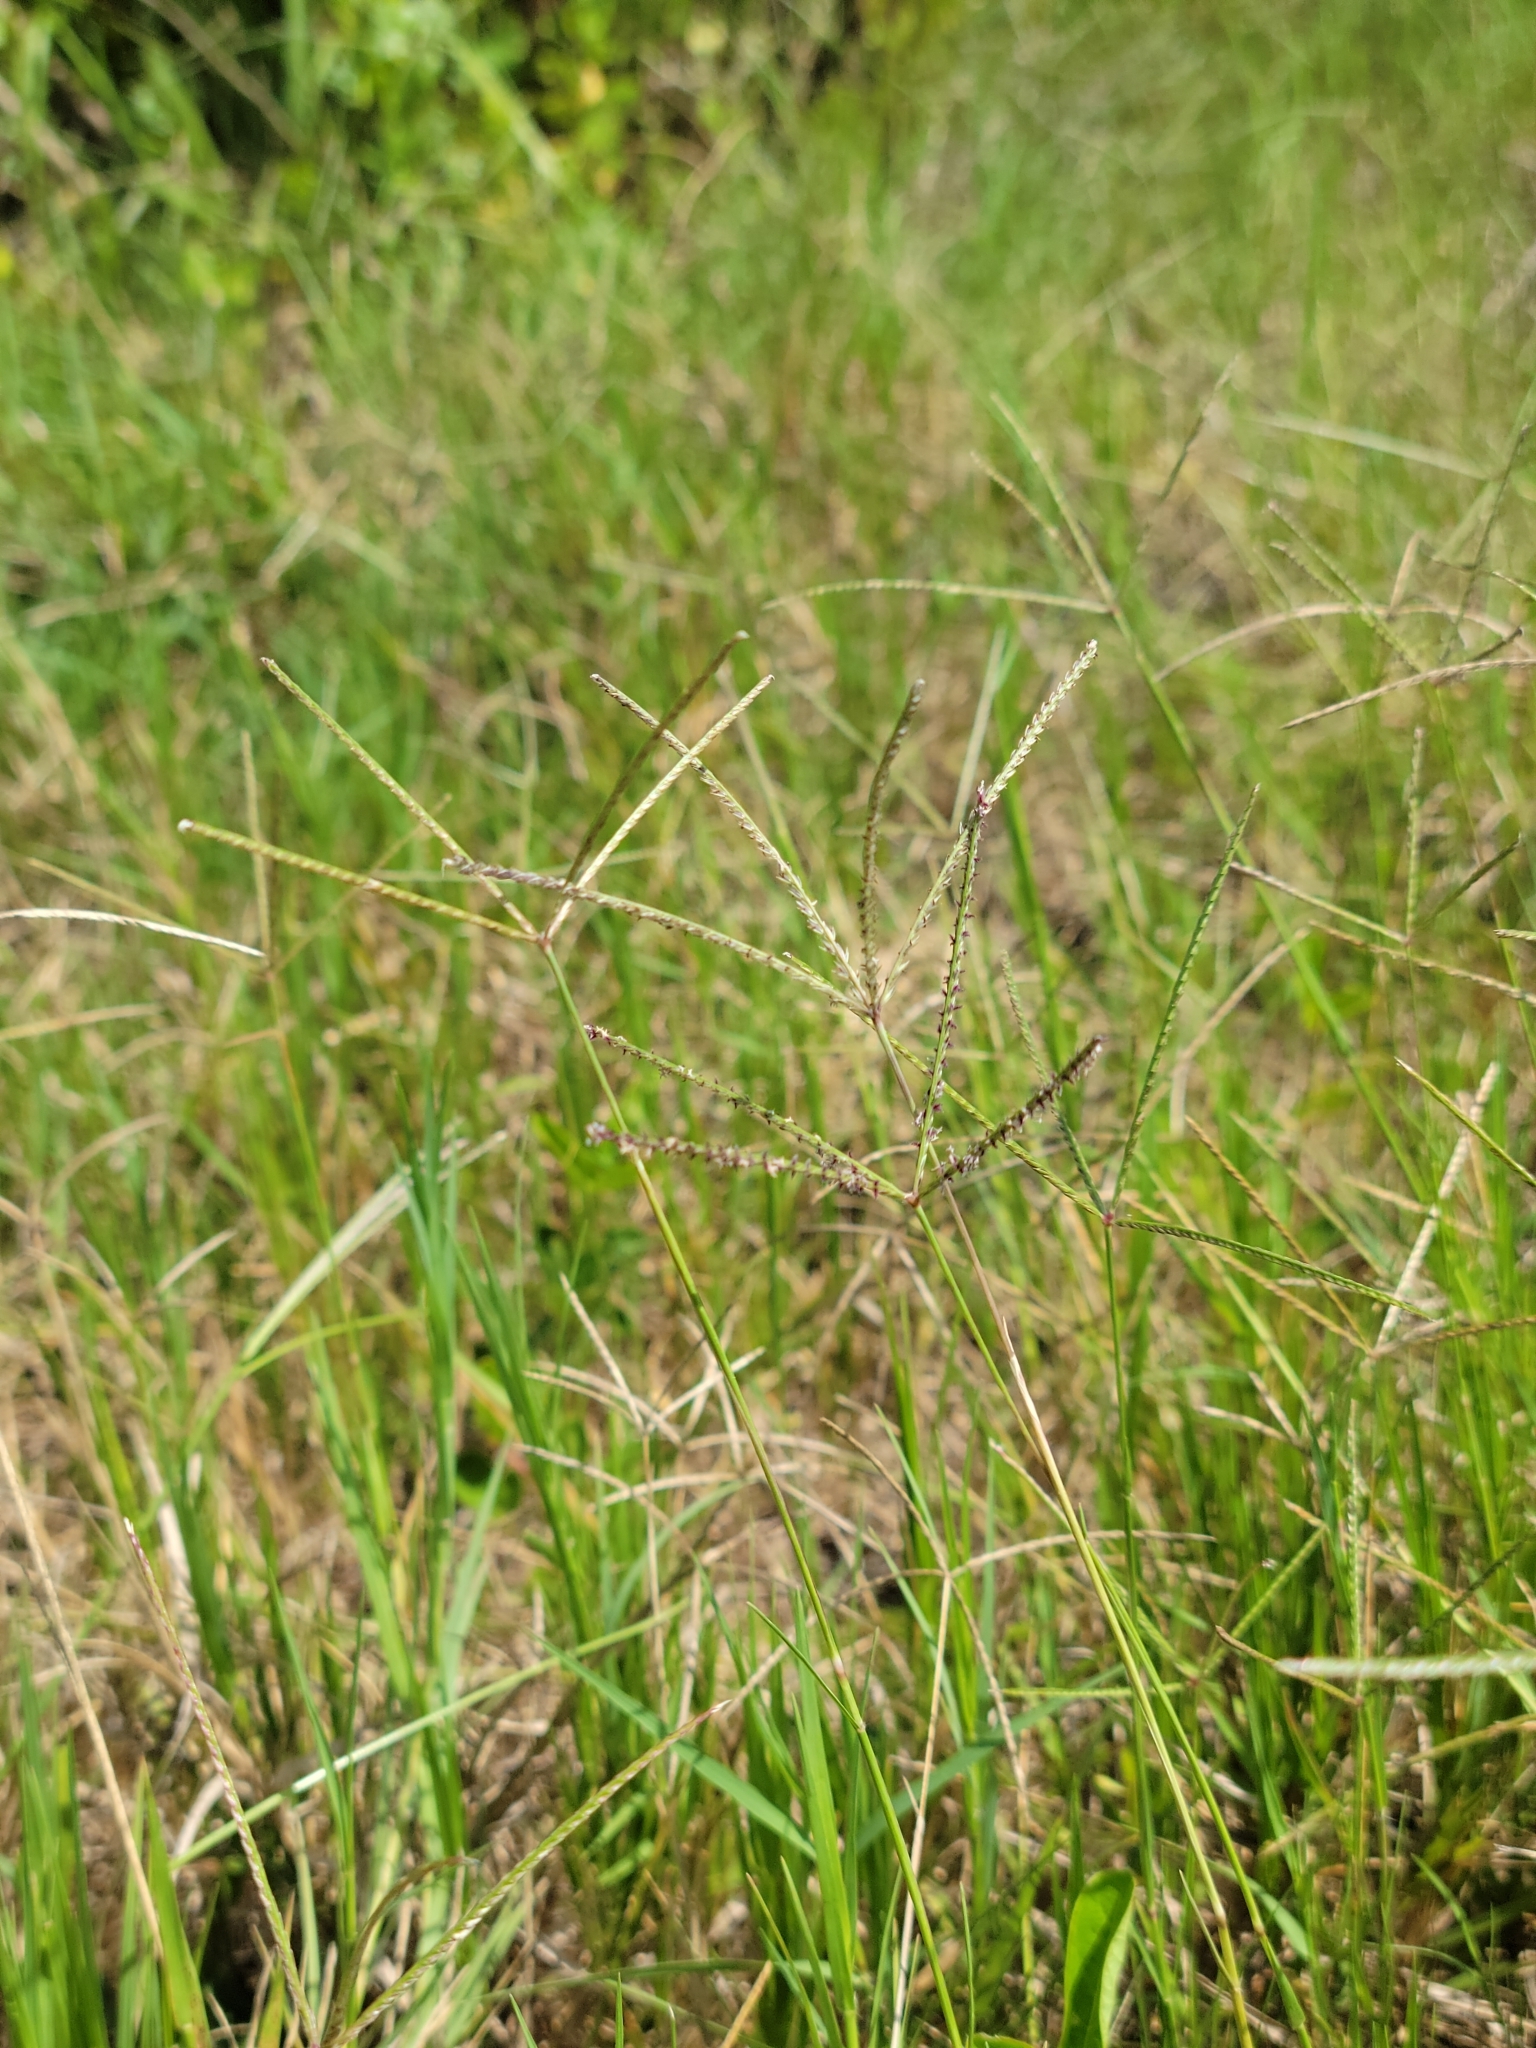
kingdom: Plantae
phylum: Tracheophyta
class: Liliopsida
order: Poales
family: Poaceae
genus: Cynodon
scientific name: Cynodon dactylon
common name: Bermuda grass
